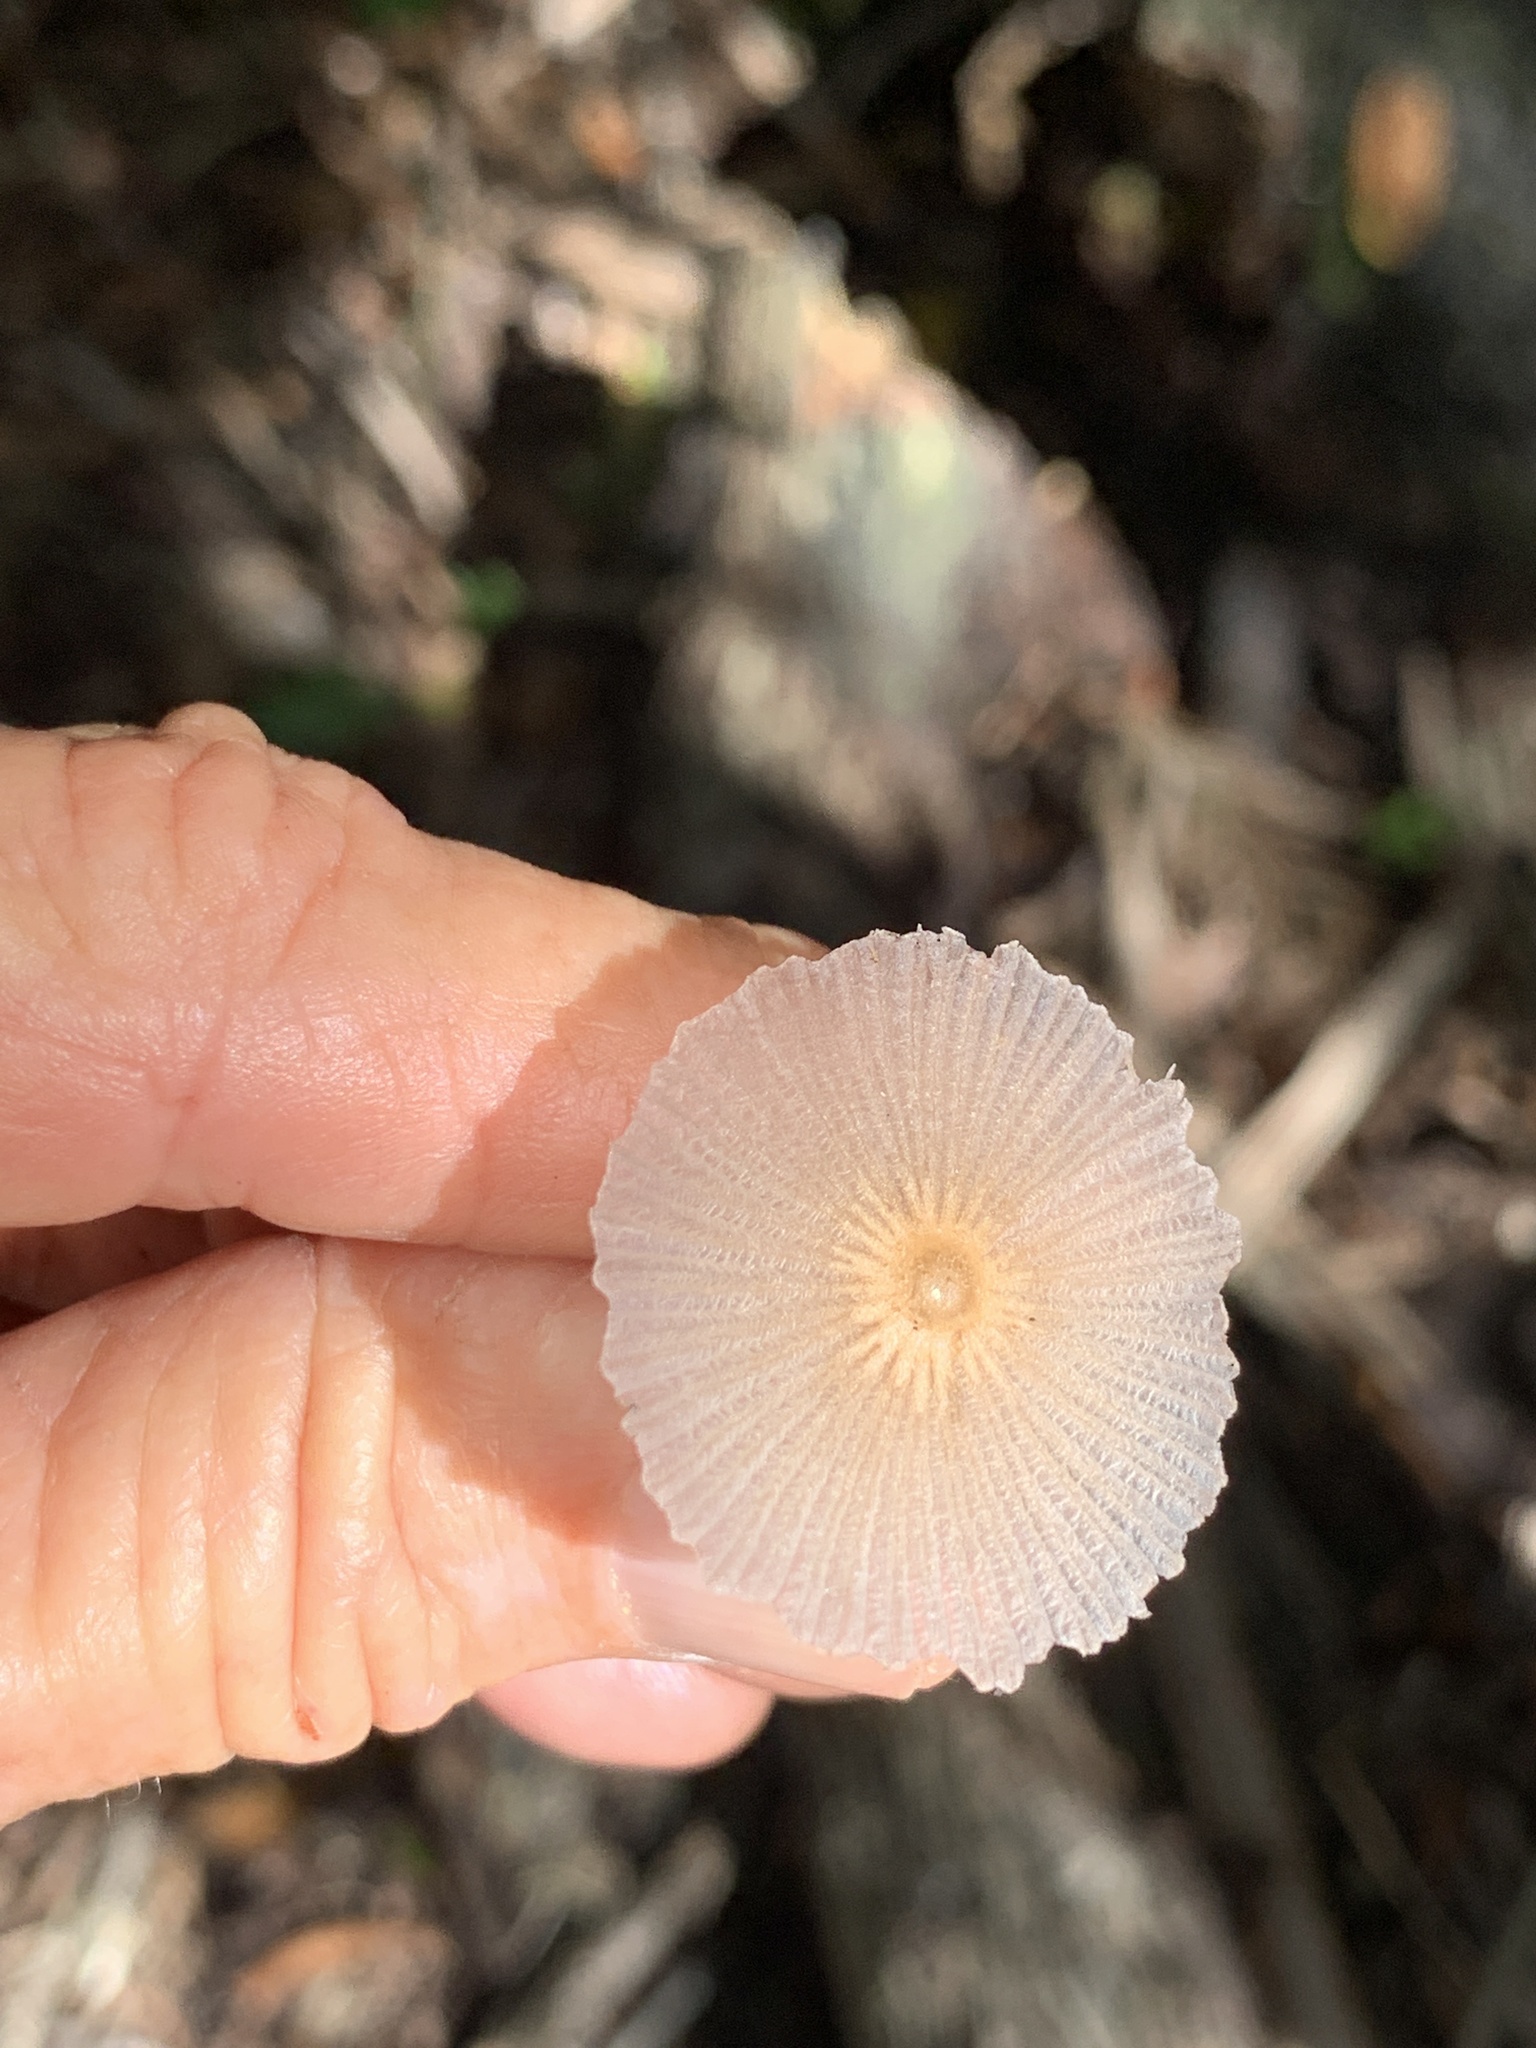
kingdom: Fungi
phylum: Basidiomycota
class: Agaricomycetes
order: Agaricales
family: Psathyrellaceae
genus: Parasola
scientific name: Parasola plicatilis
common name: Pleated inkcap
